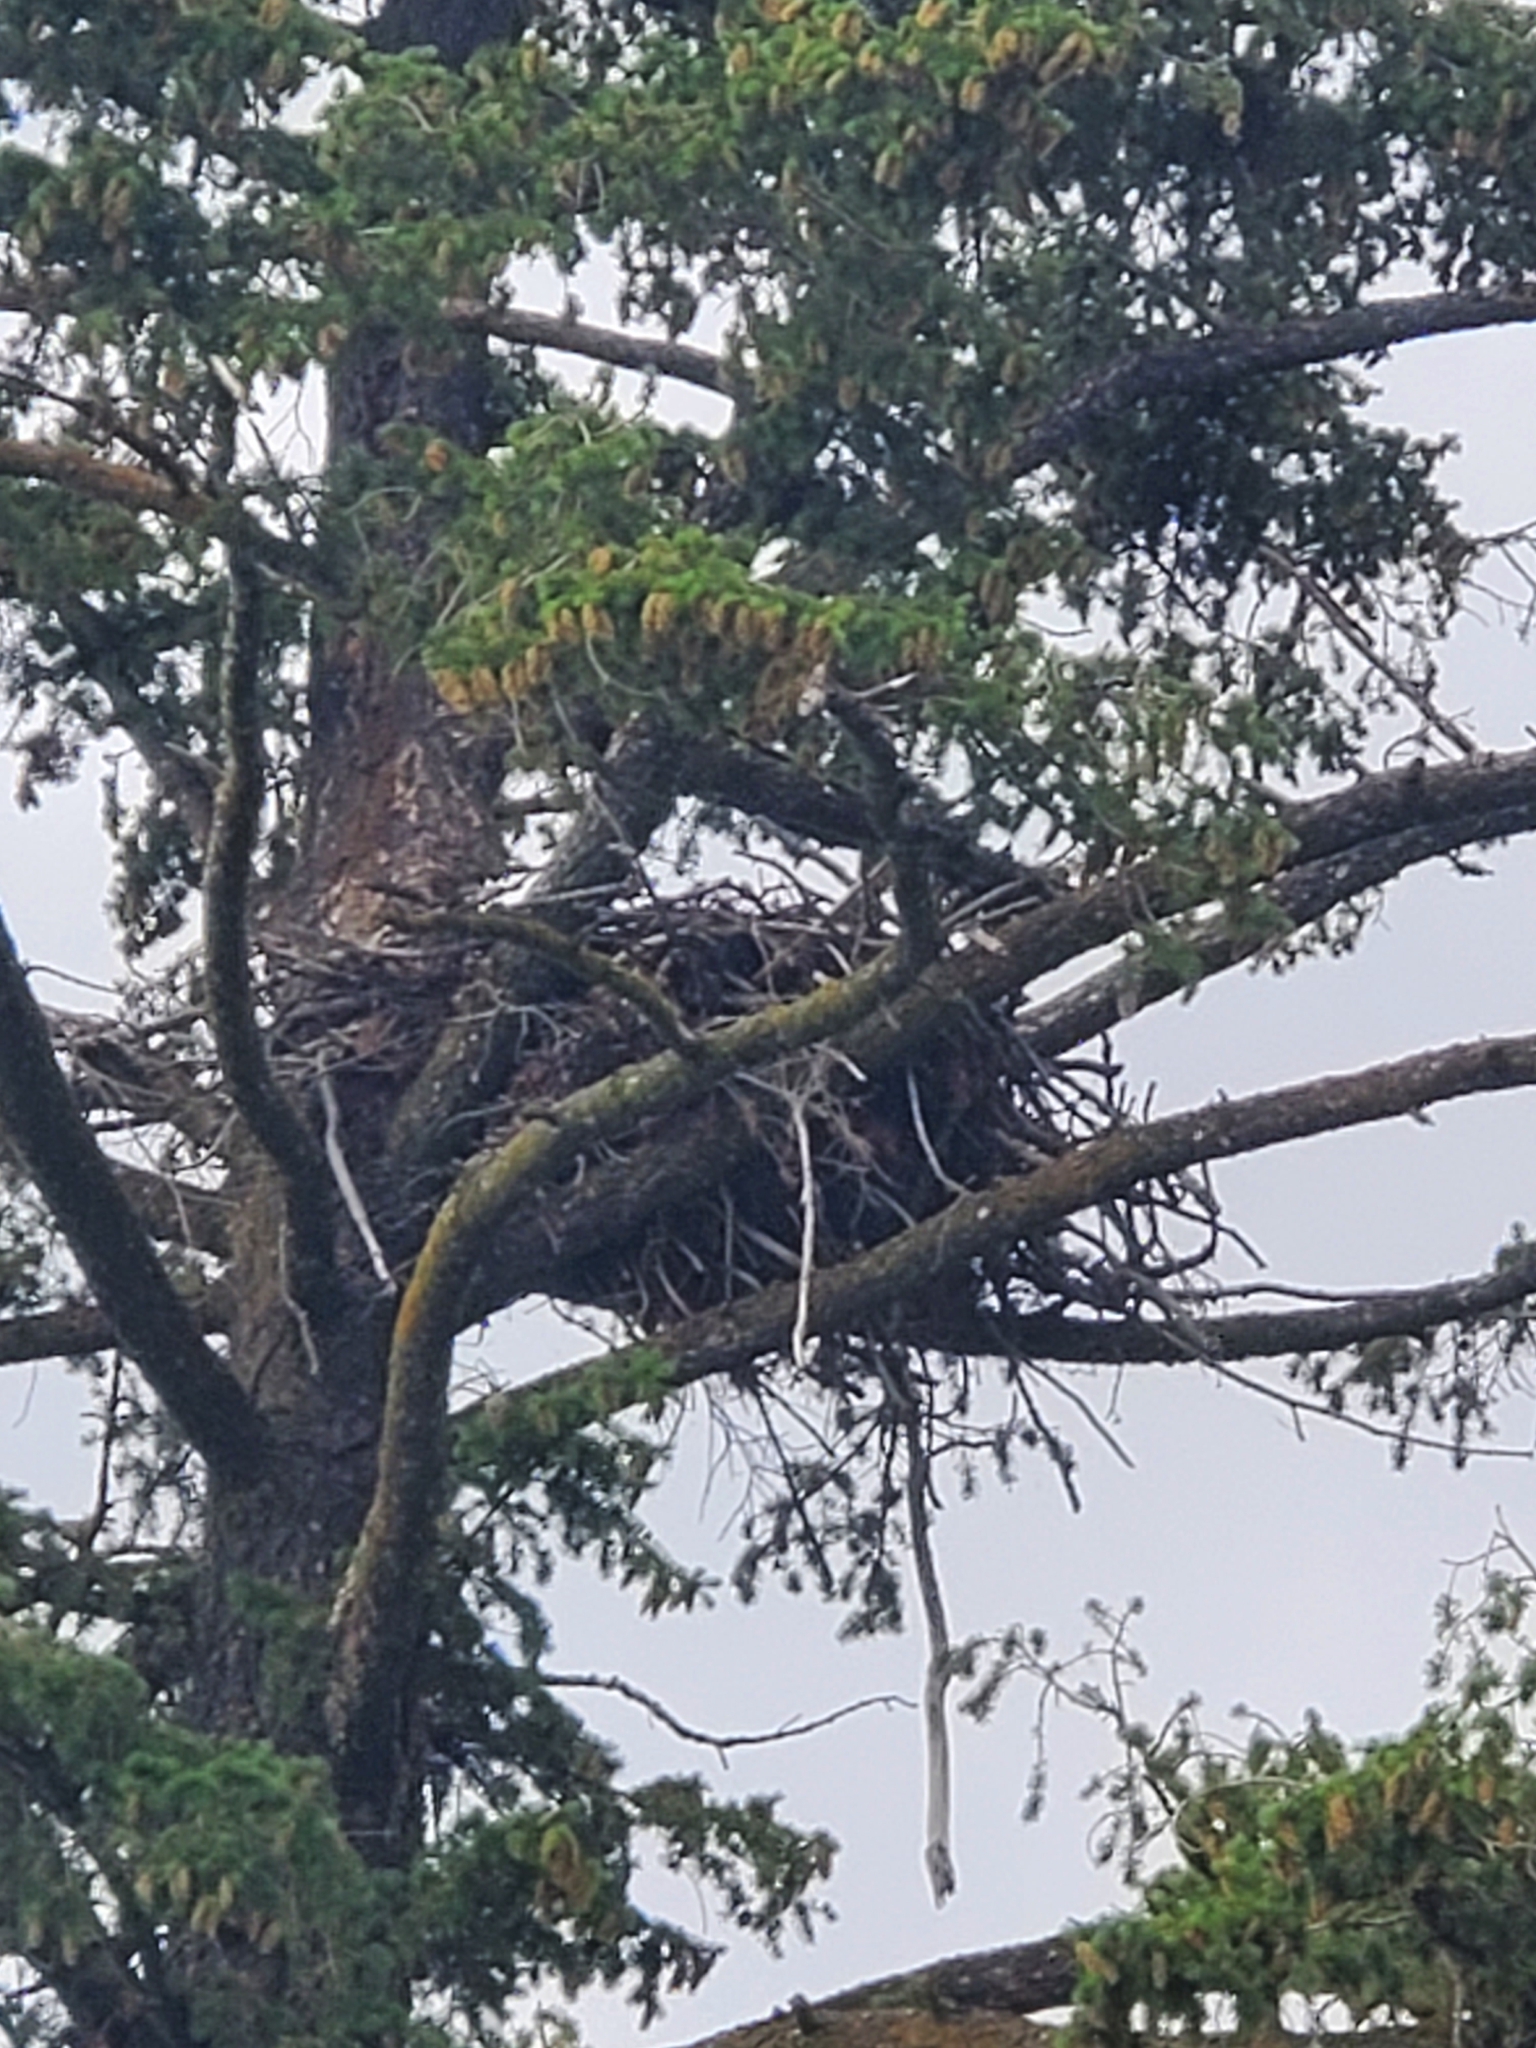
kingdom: Animalia
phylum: Chordata
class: Aves
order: Accipitriformes
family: Accipitridae
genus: Haliaeetus
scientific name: Haliaeetus leucocephalus
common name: Bald eagle
